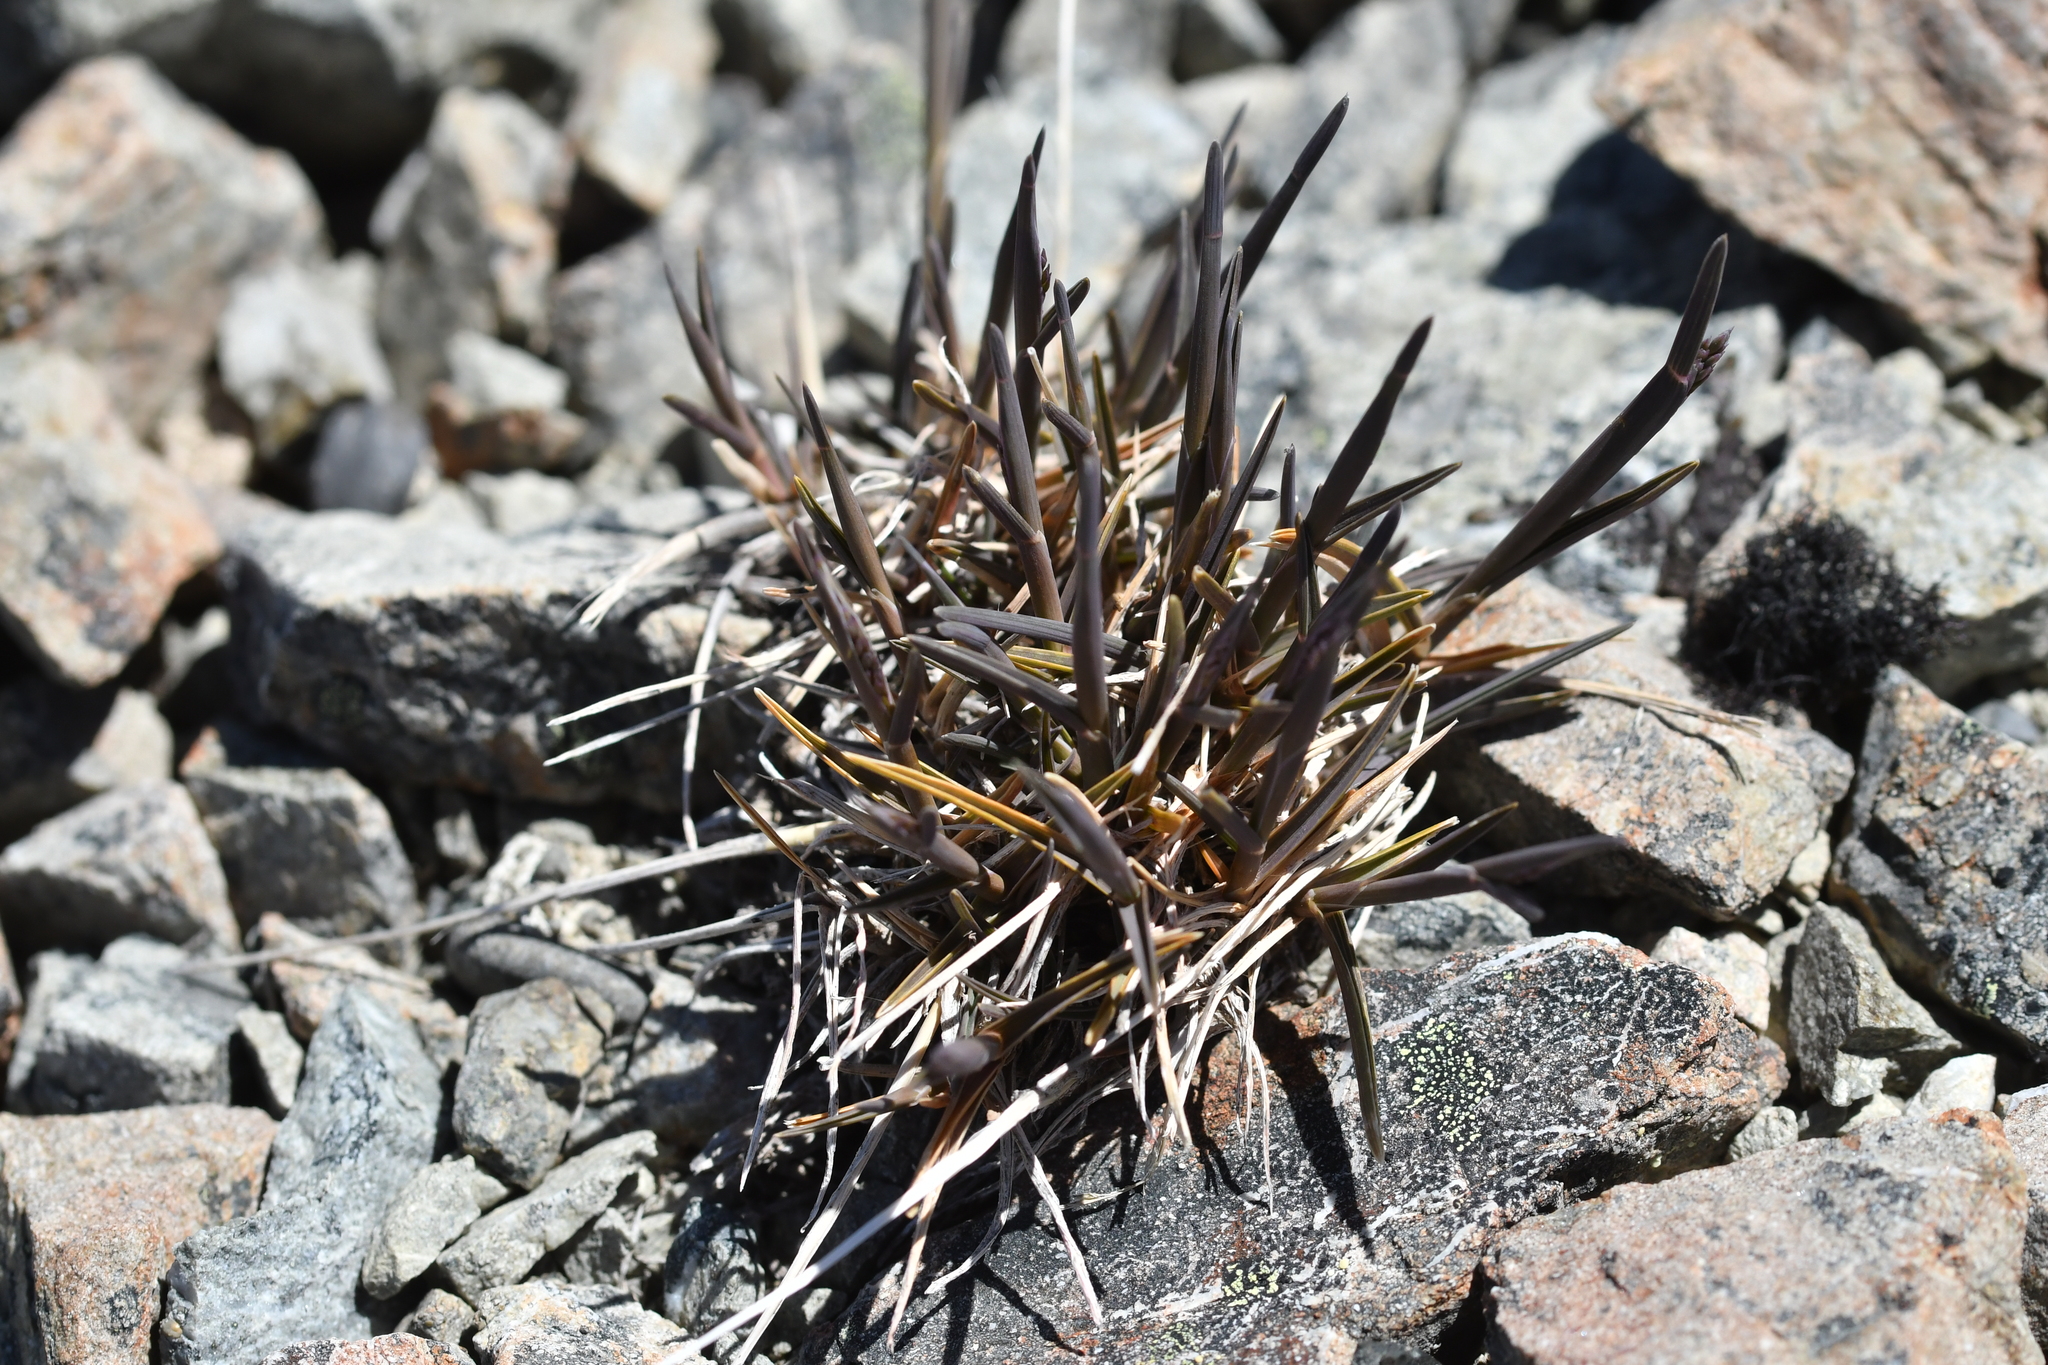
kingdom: Plantae
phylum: Tracheophyta
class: Liliopsida
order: Poales
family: Poaceae
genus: Poa
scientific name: Poa buchananii
